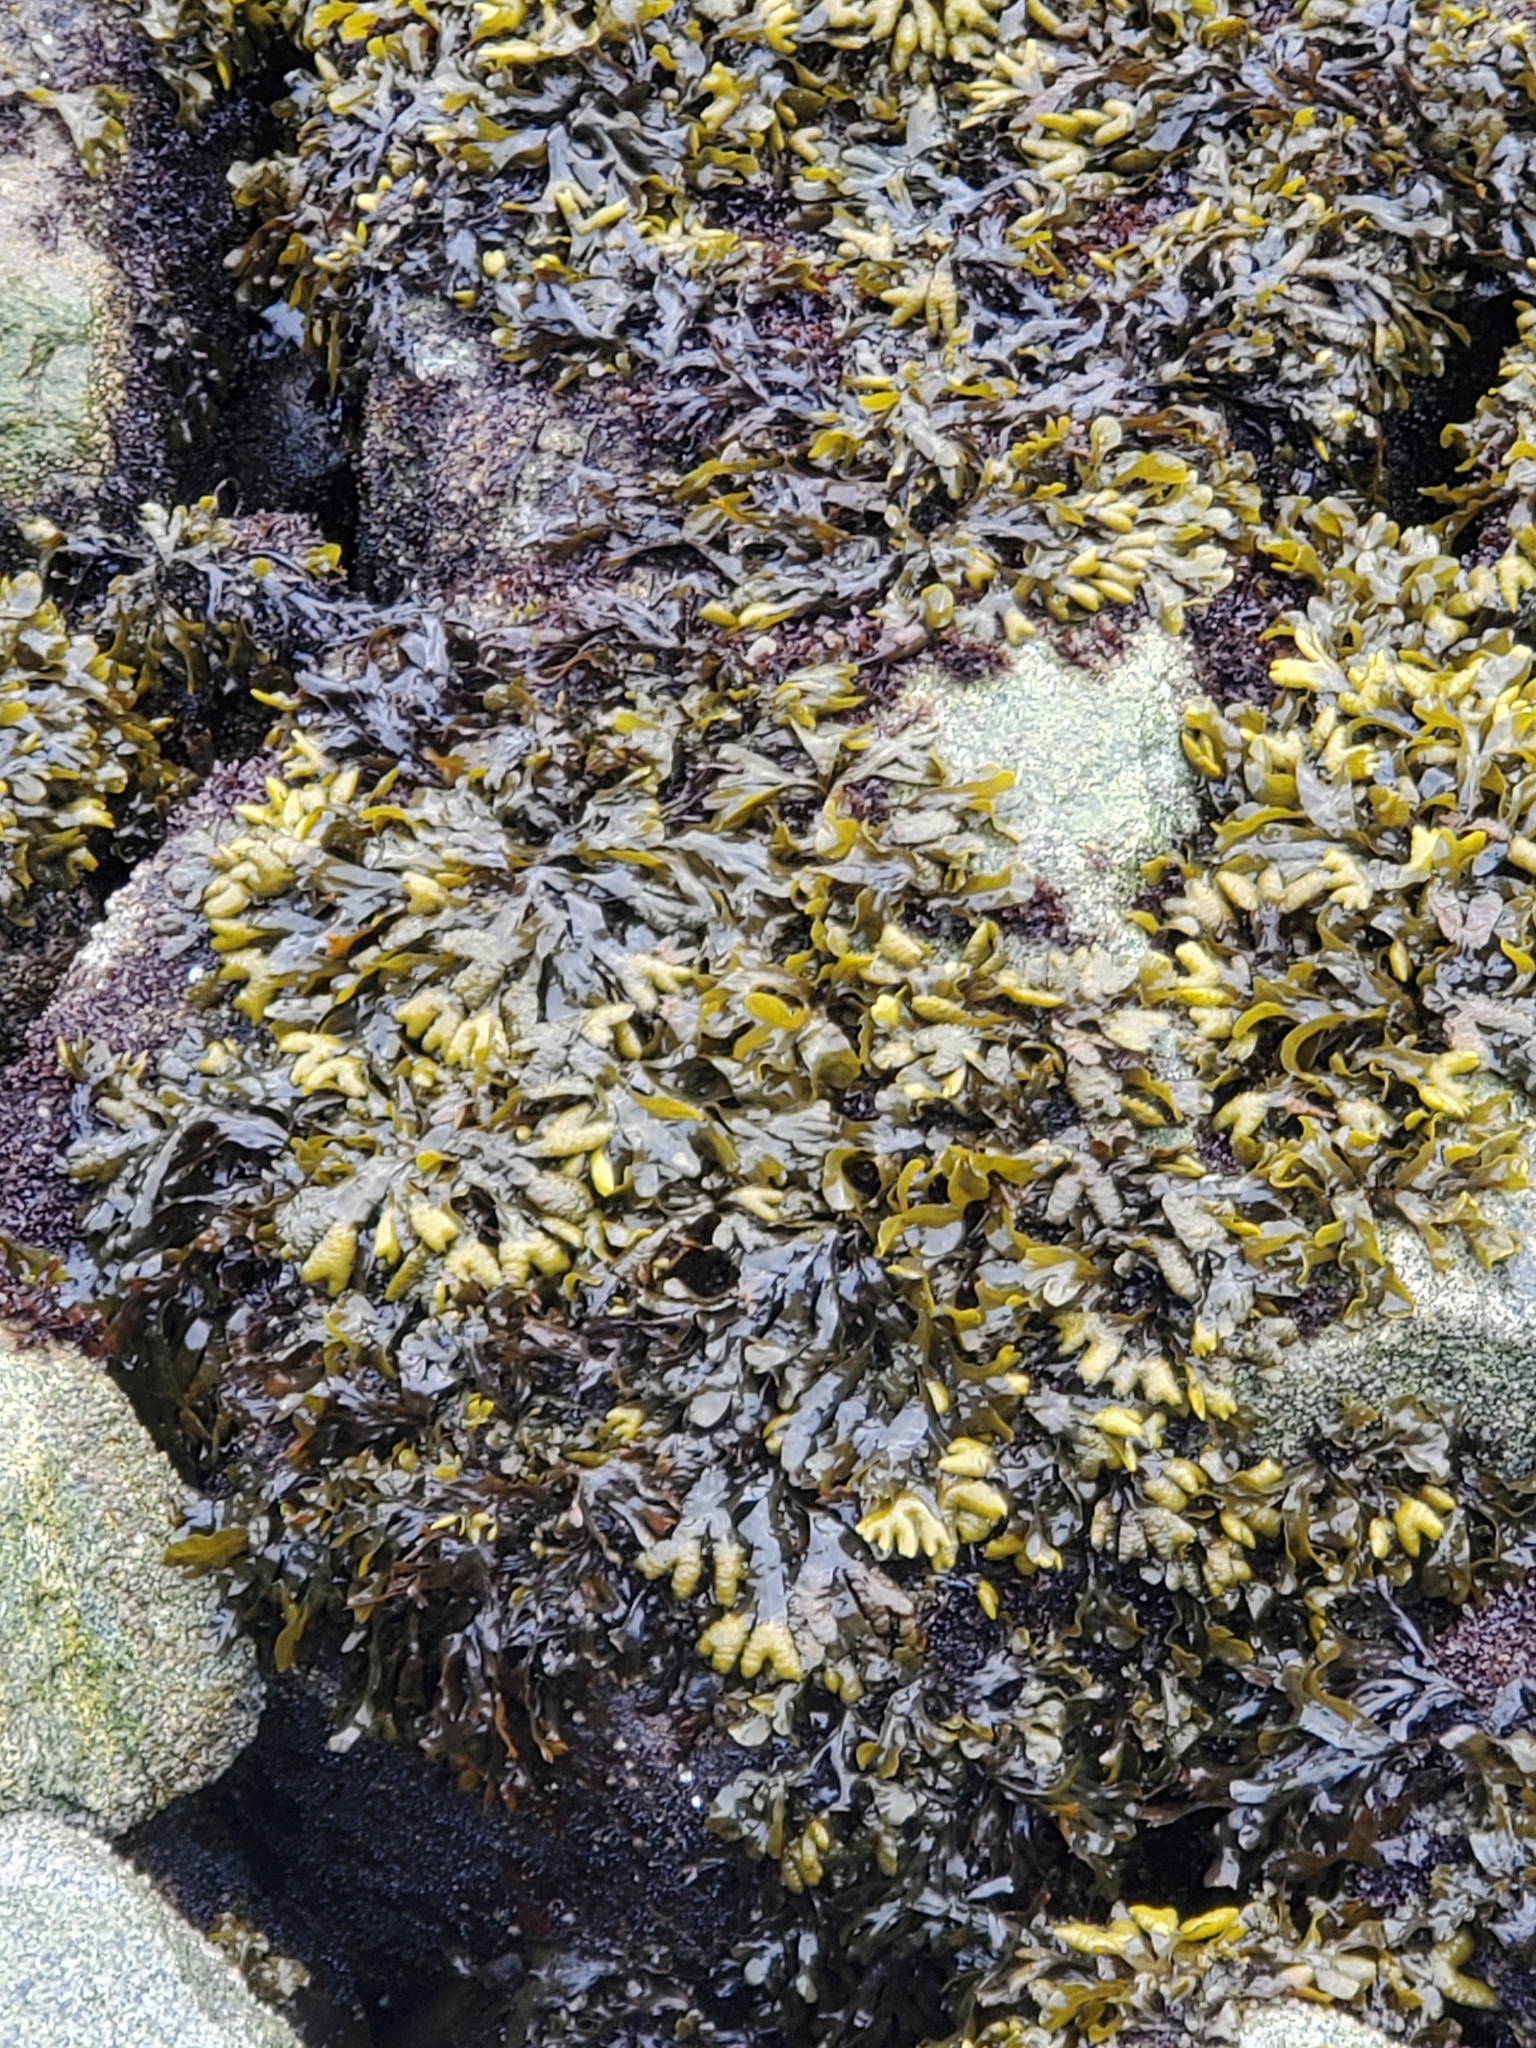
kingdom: Chromista
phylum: Ochrophyta
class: Phaeophyceae
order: Fucales
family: Fucaceae
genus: Fucus
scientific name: Fucus distichus
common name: Rockweed
